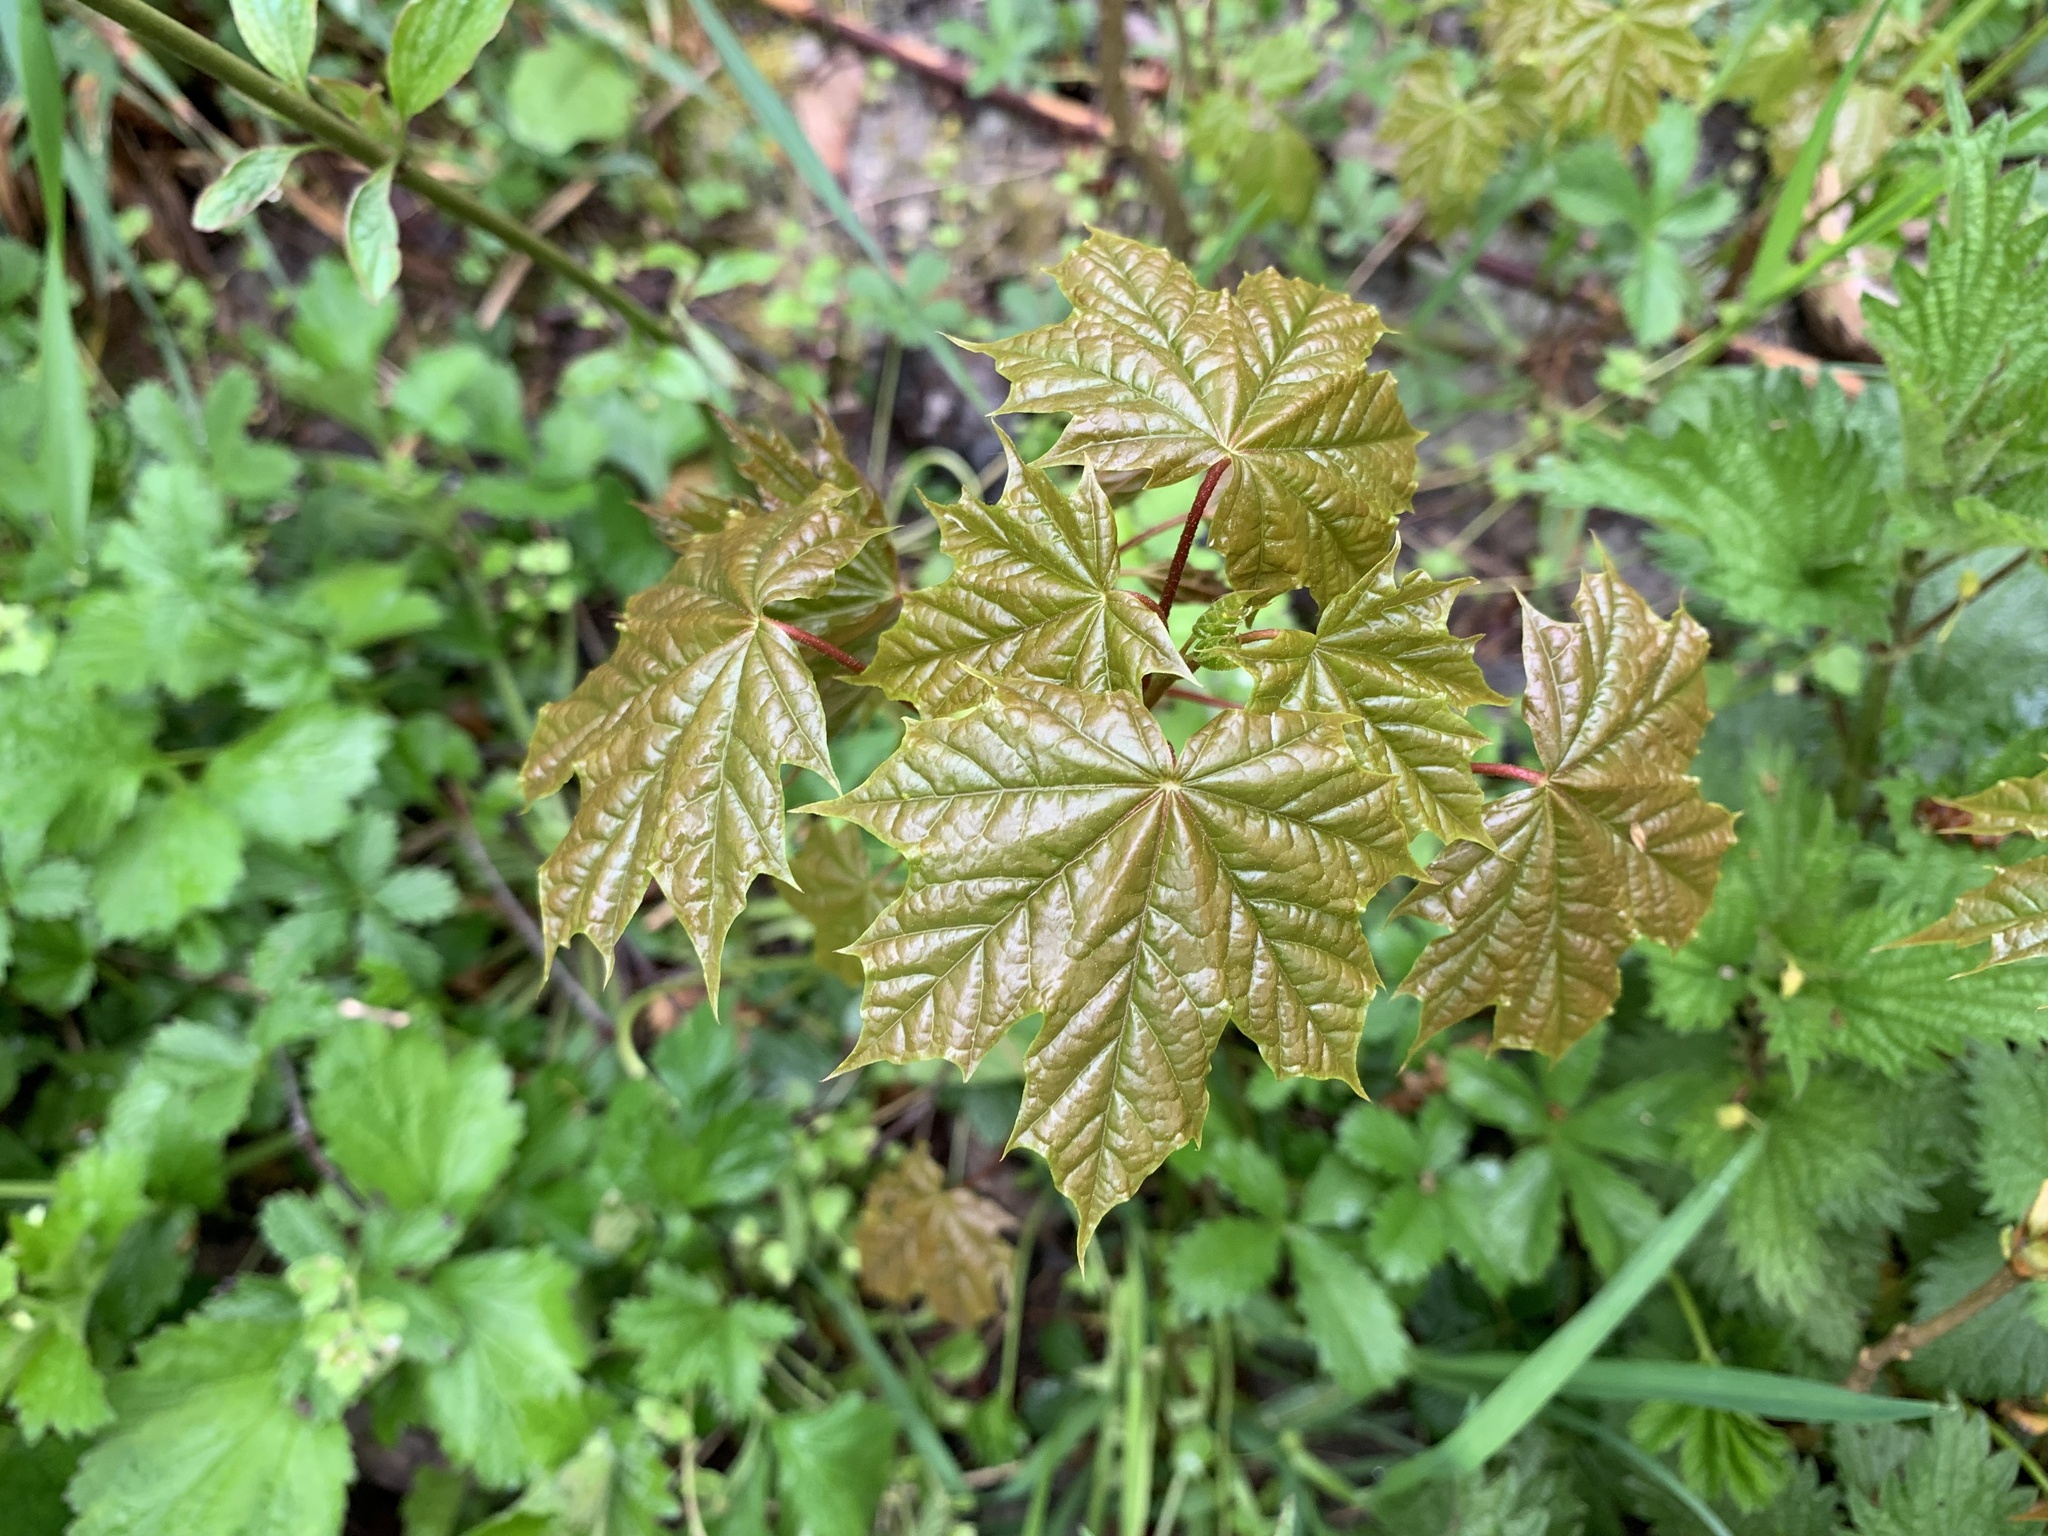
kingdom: Plantae
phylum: Tracheophyta
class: Magnoliopsida
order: Sapindales
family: Sapindaceae
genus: Acer
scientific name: Acer platanoides
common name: Norway maple
